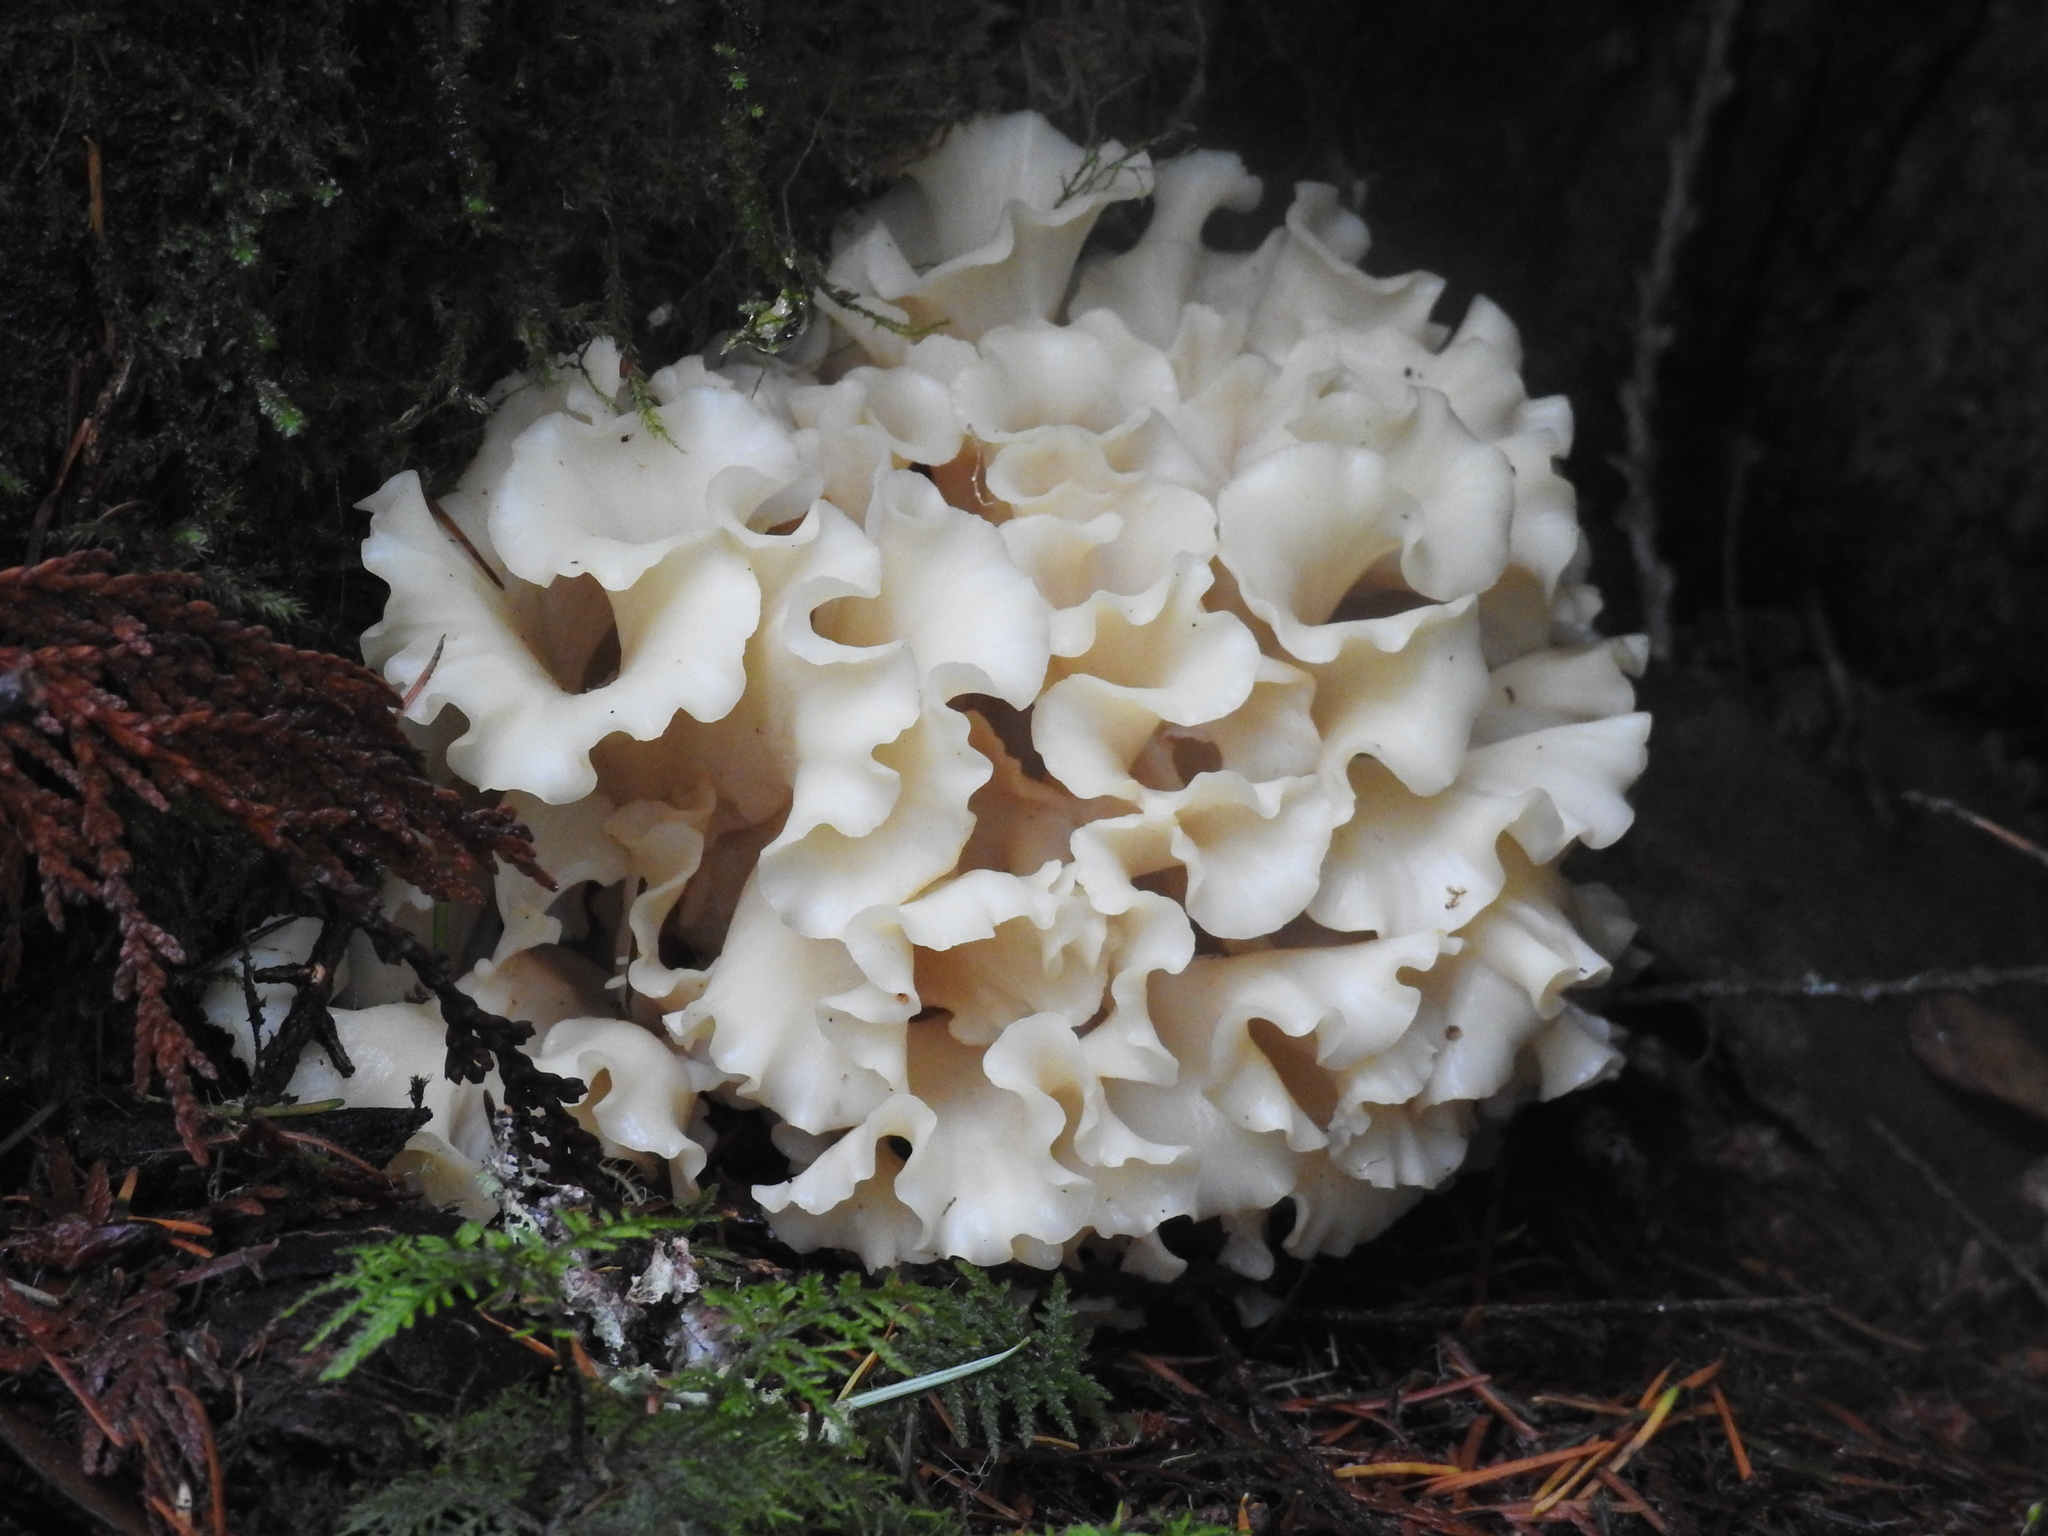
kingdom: Fungi
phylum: Basidiomycota
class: Agaricomycetes
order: Polyporales
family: Sparassidaceae
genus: Sparassis
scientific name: Sparassis radicata
